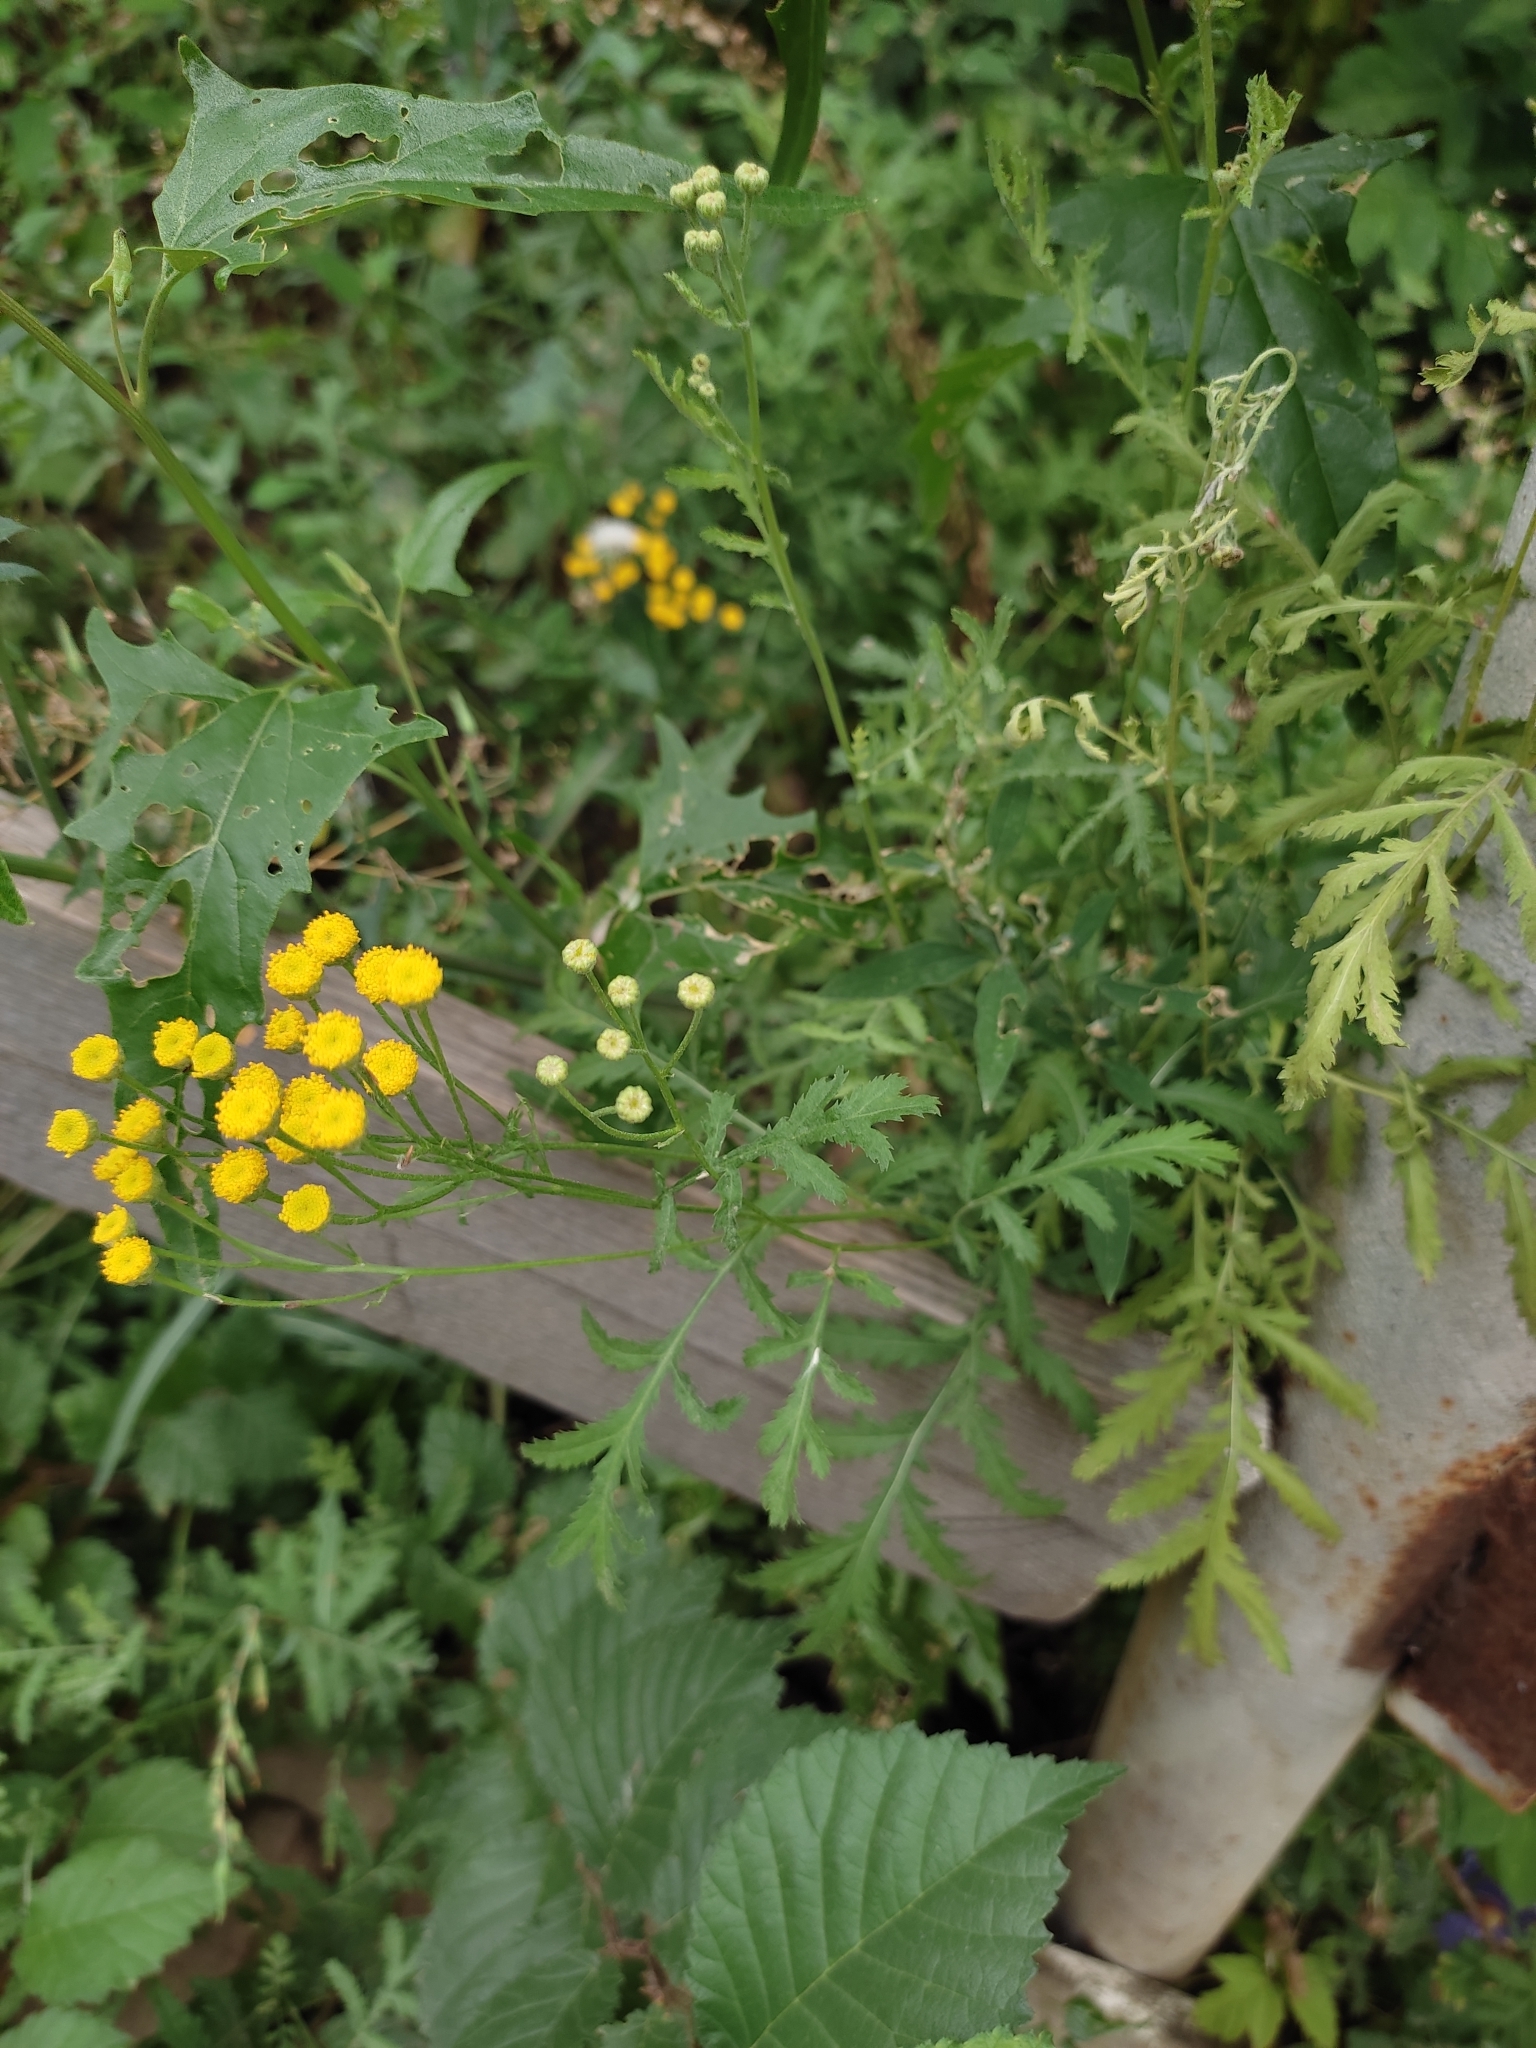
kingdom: Plantae
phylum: Tracheophyta
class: Magnoliopsida
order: Asterales
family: Asteraceae
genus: Tanacetum
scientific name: Tanacetum vulgare
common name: Common tansy
